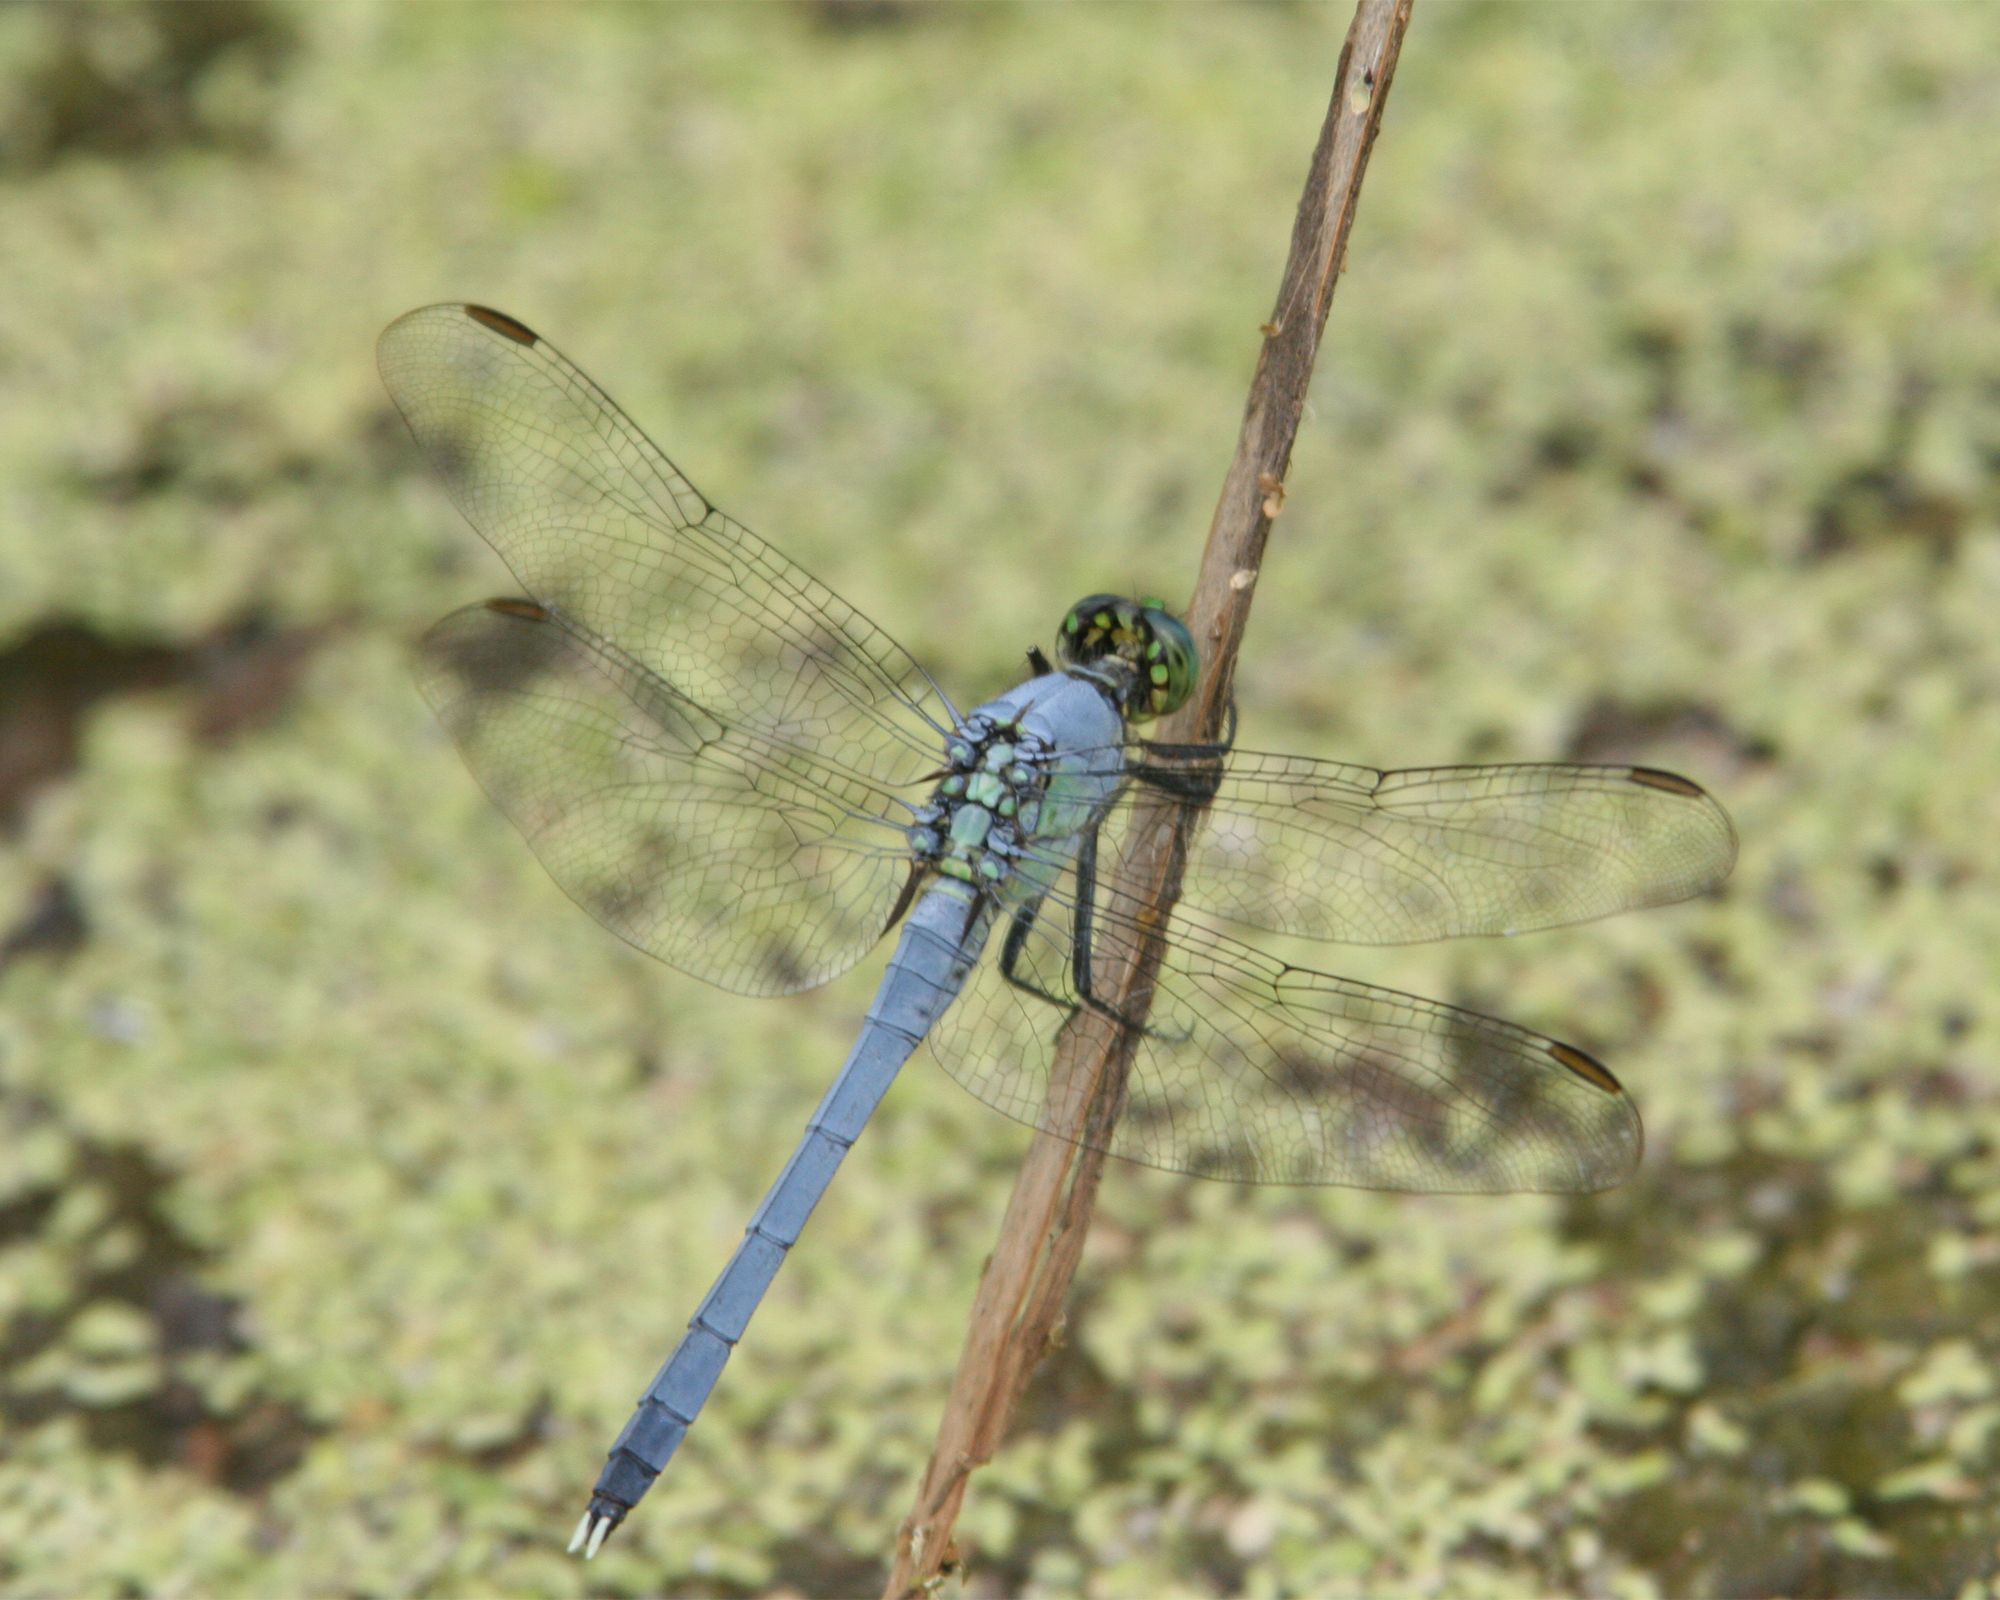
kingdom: Animalia
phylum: Arthropoda
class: Insecta
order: Odonata
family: Libellulidae
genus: Erythemis
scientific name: Erythemis simplicicollis
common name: Eastern pondhawk
